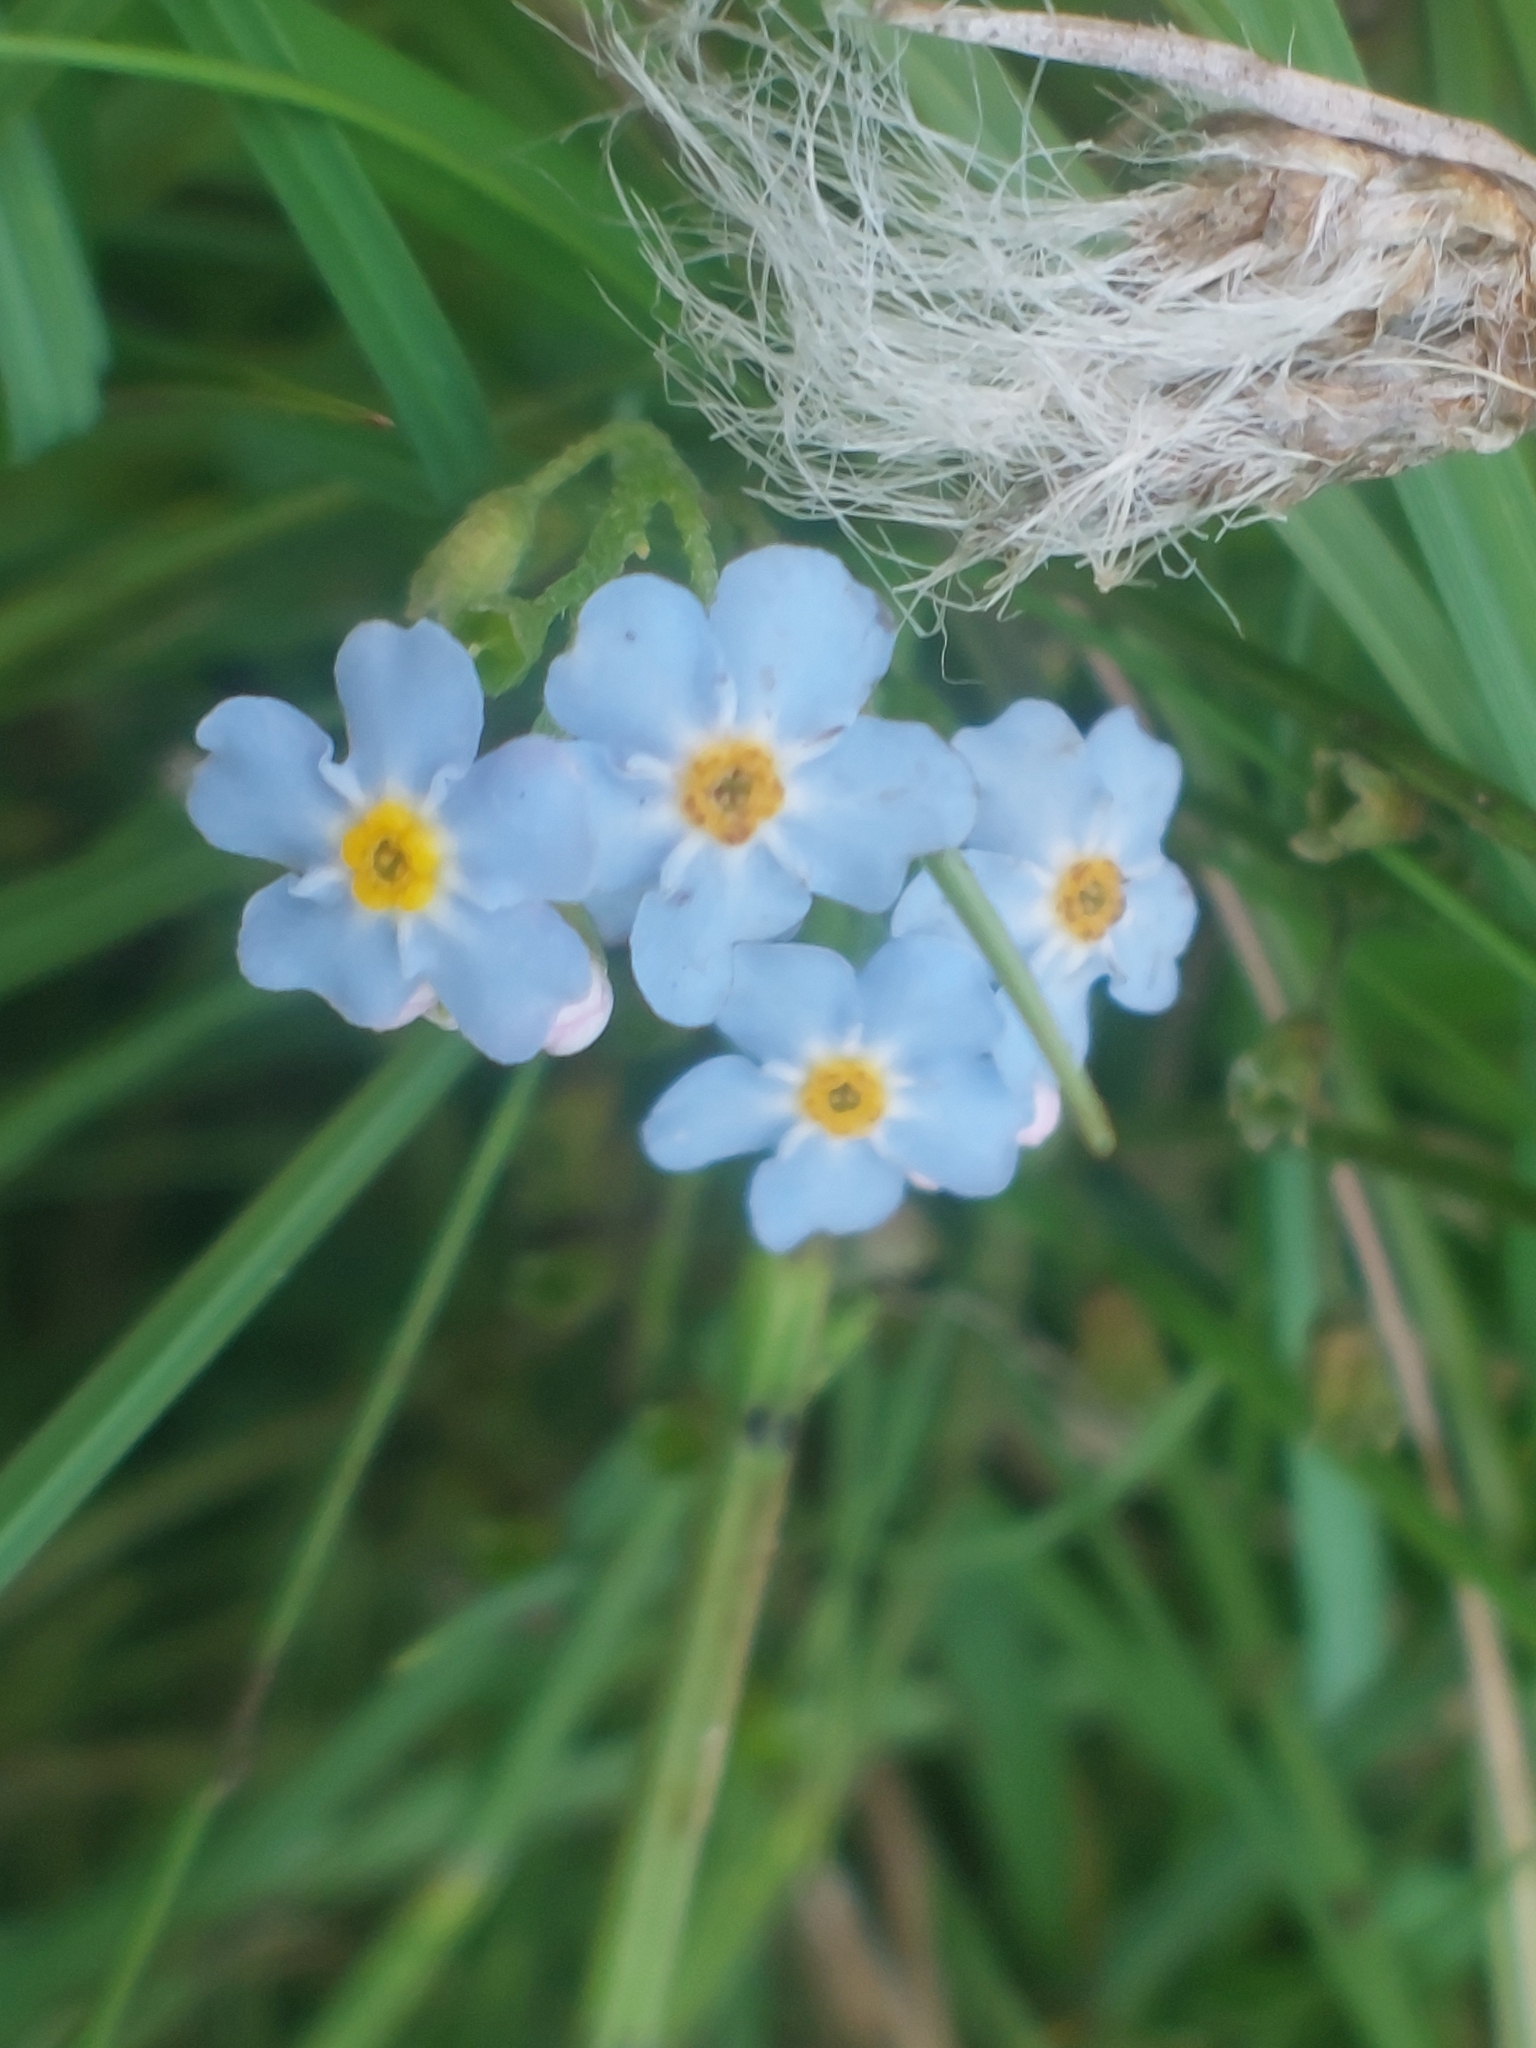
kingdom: Plantae
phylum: Tracheophyta
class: Magnoliopsida
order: Boraginales
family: Boraginaceae
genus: Myosotis
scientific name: Myosotis scorpioides
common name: Water forget-me-not
